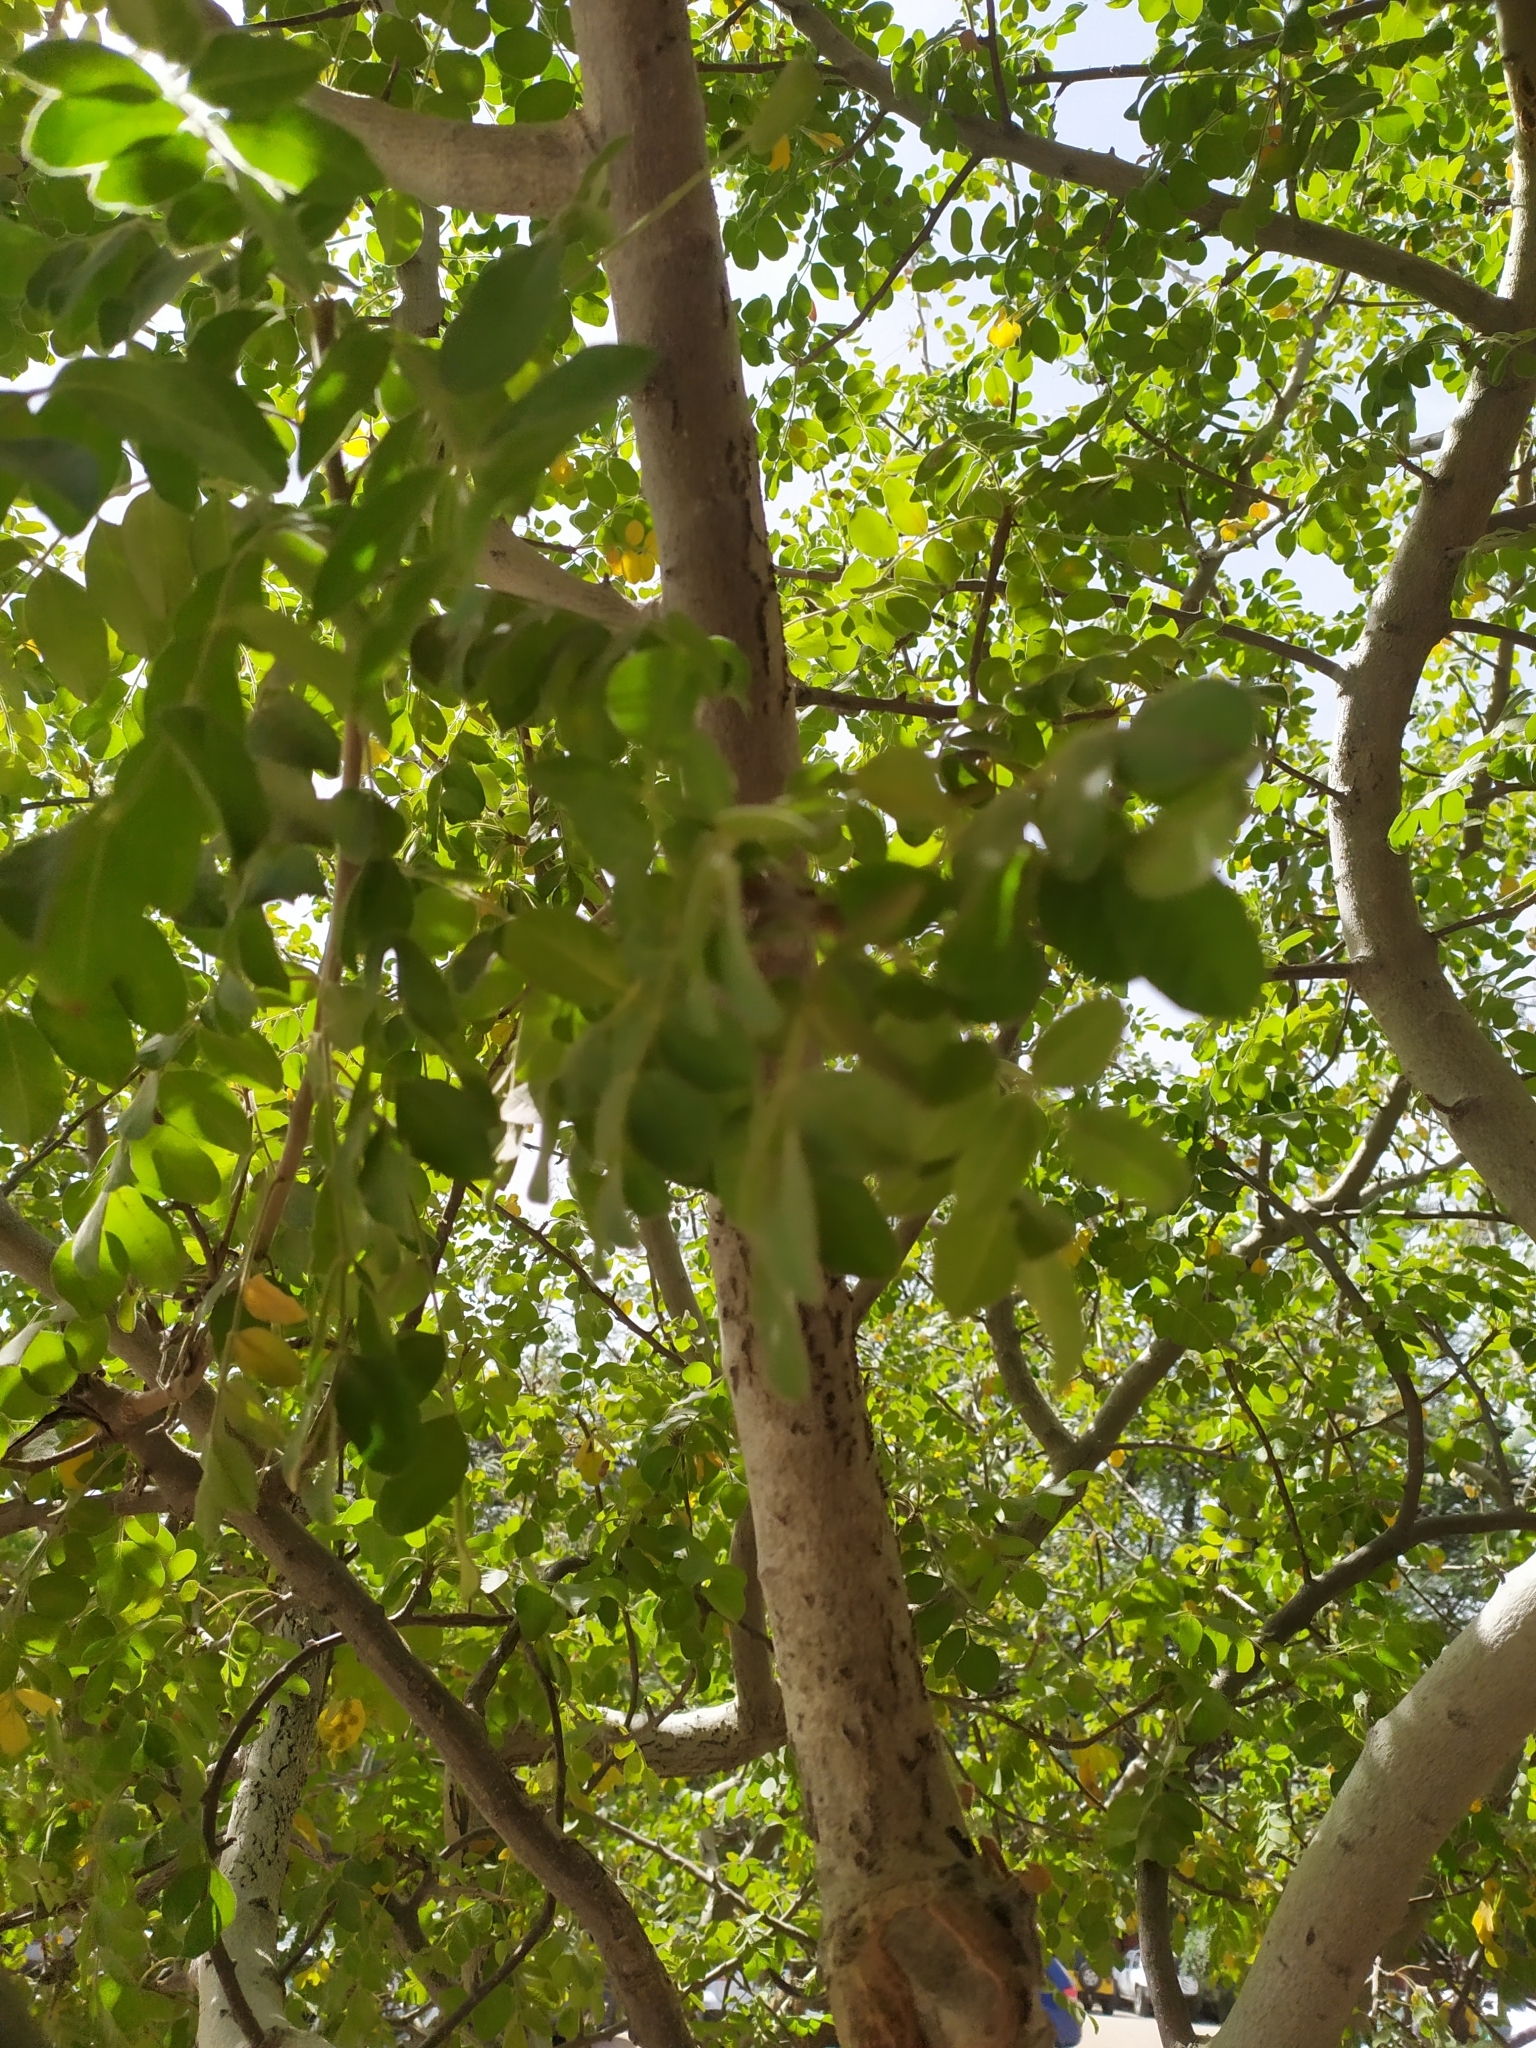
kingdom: Plantae
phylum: Tracheophyta
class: Magnoliopsida
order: Sapindales
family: Anacardiaceae
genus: Cyrtocarpa
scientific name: Cyrtocarpa edulis
